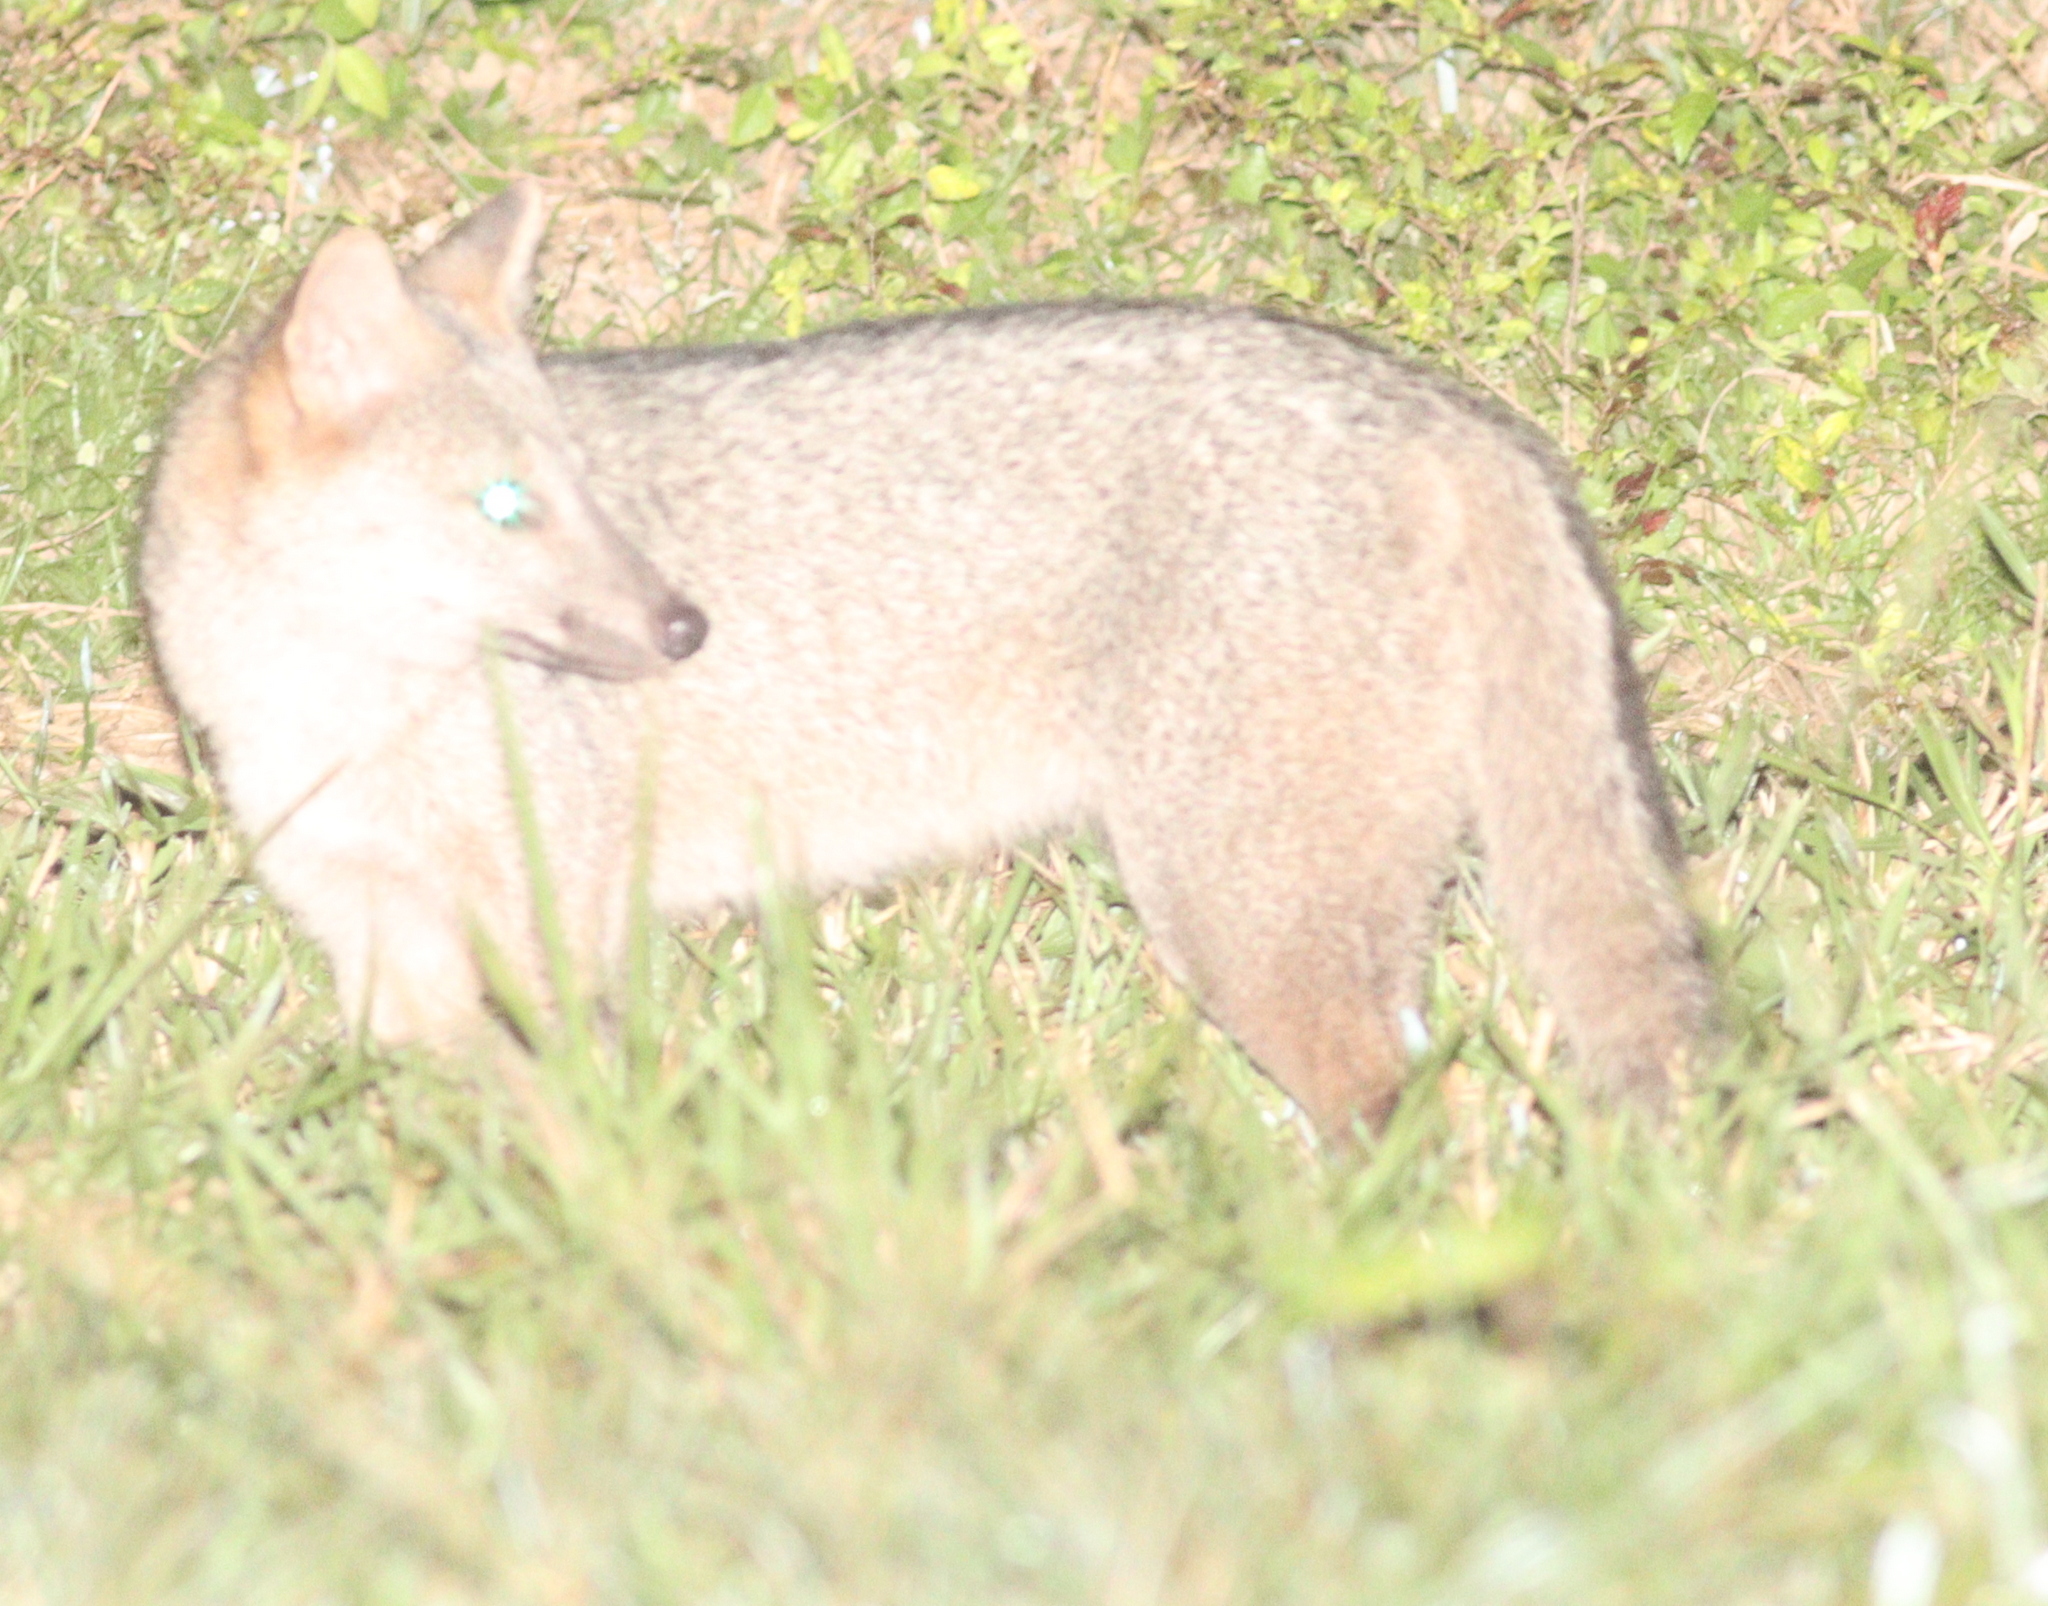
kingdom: Animalia
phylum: Chordata
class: Mammalia
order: Carnivora
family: Canidae
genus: Cerdocyon
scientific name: Cerdocyon thous
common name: Crab-eating fox
